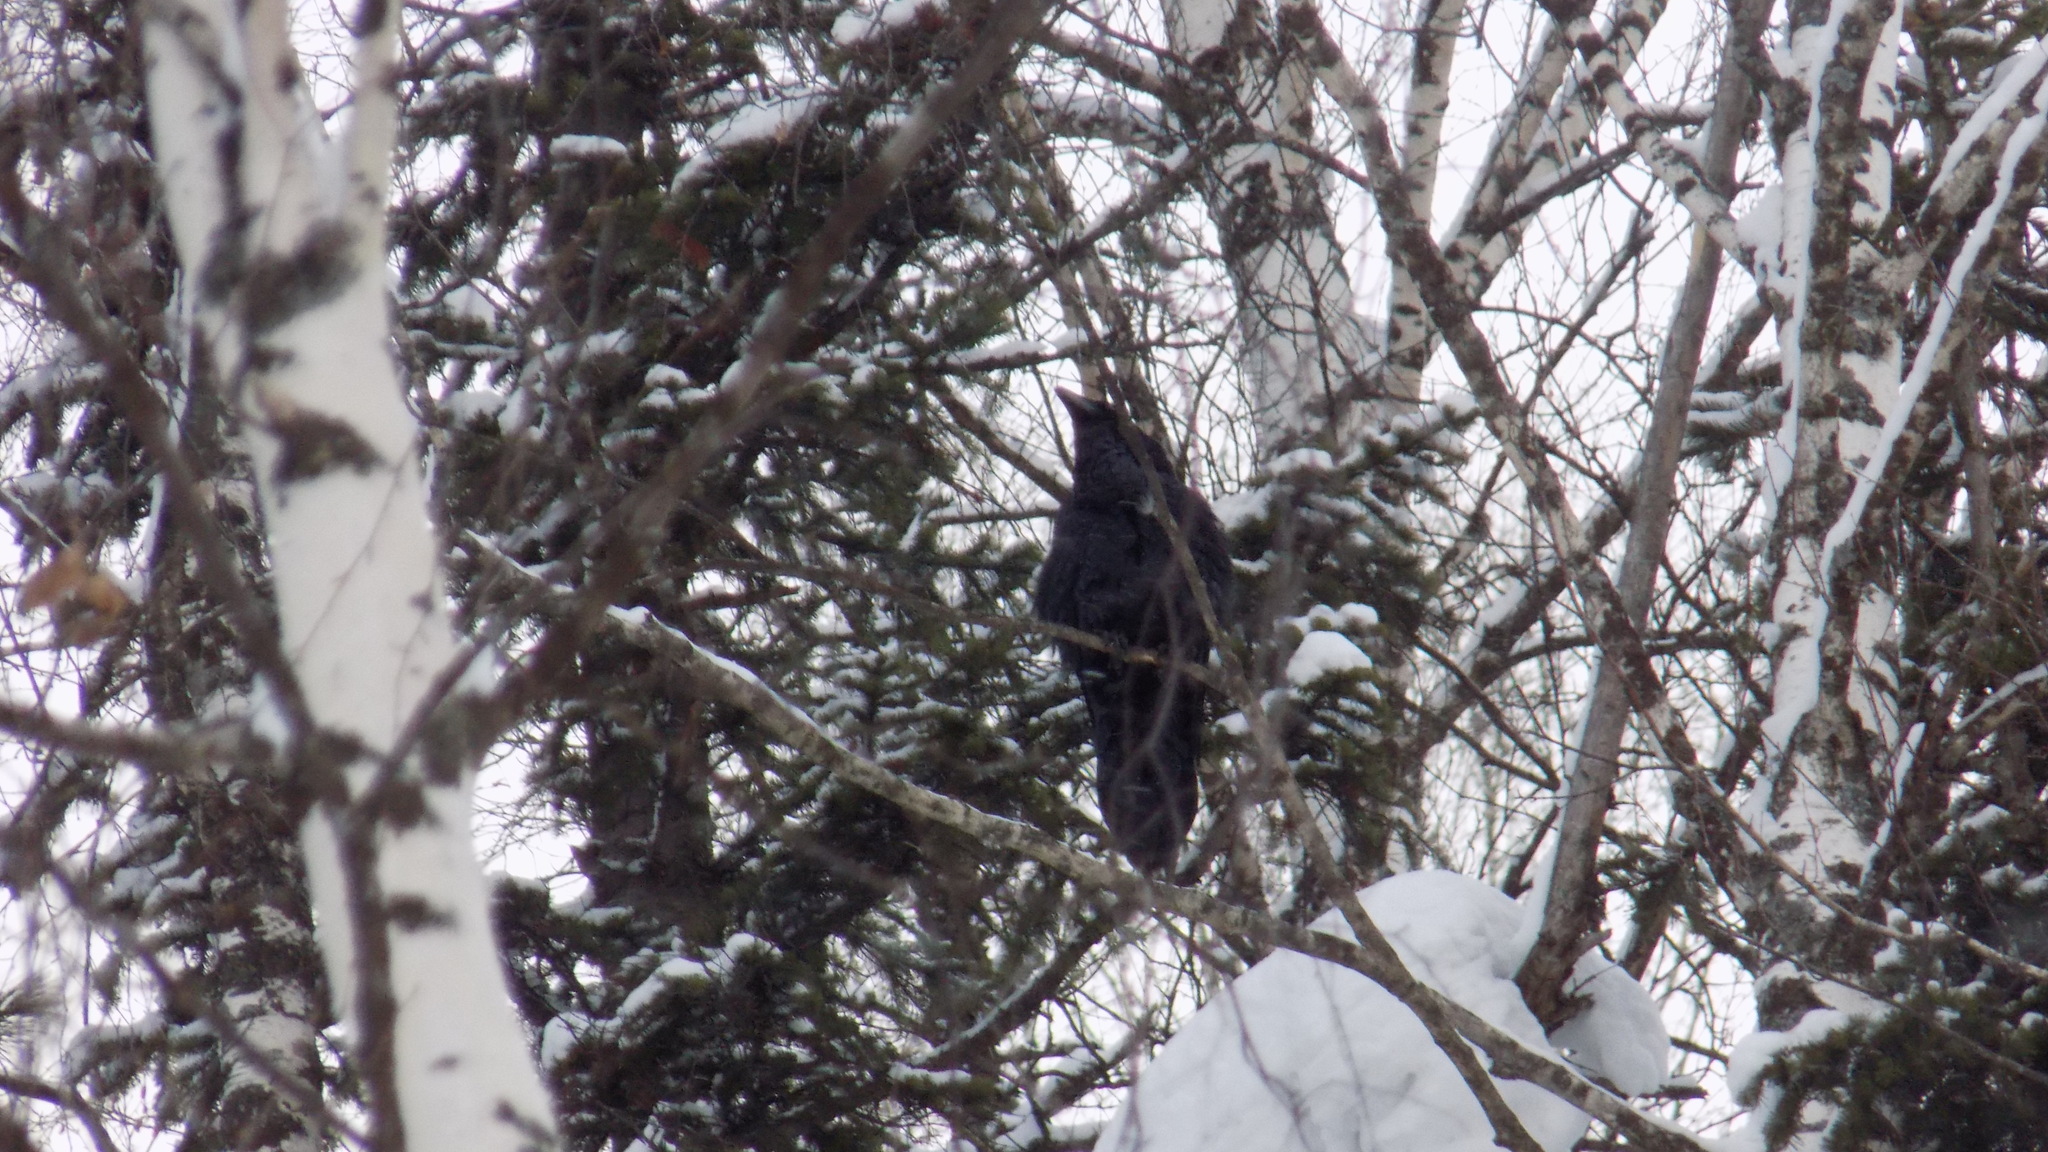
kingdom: Animalia
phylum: Chordata
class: Aves
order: Passeriformes
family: Corvidae
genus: Corvus
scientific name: Corvus corax
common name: Common raven
